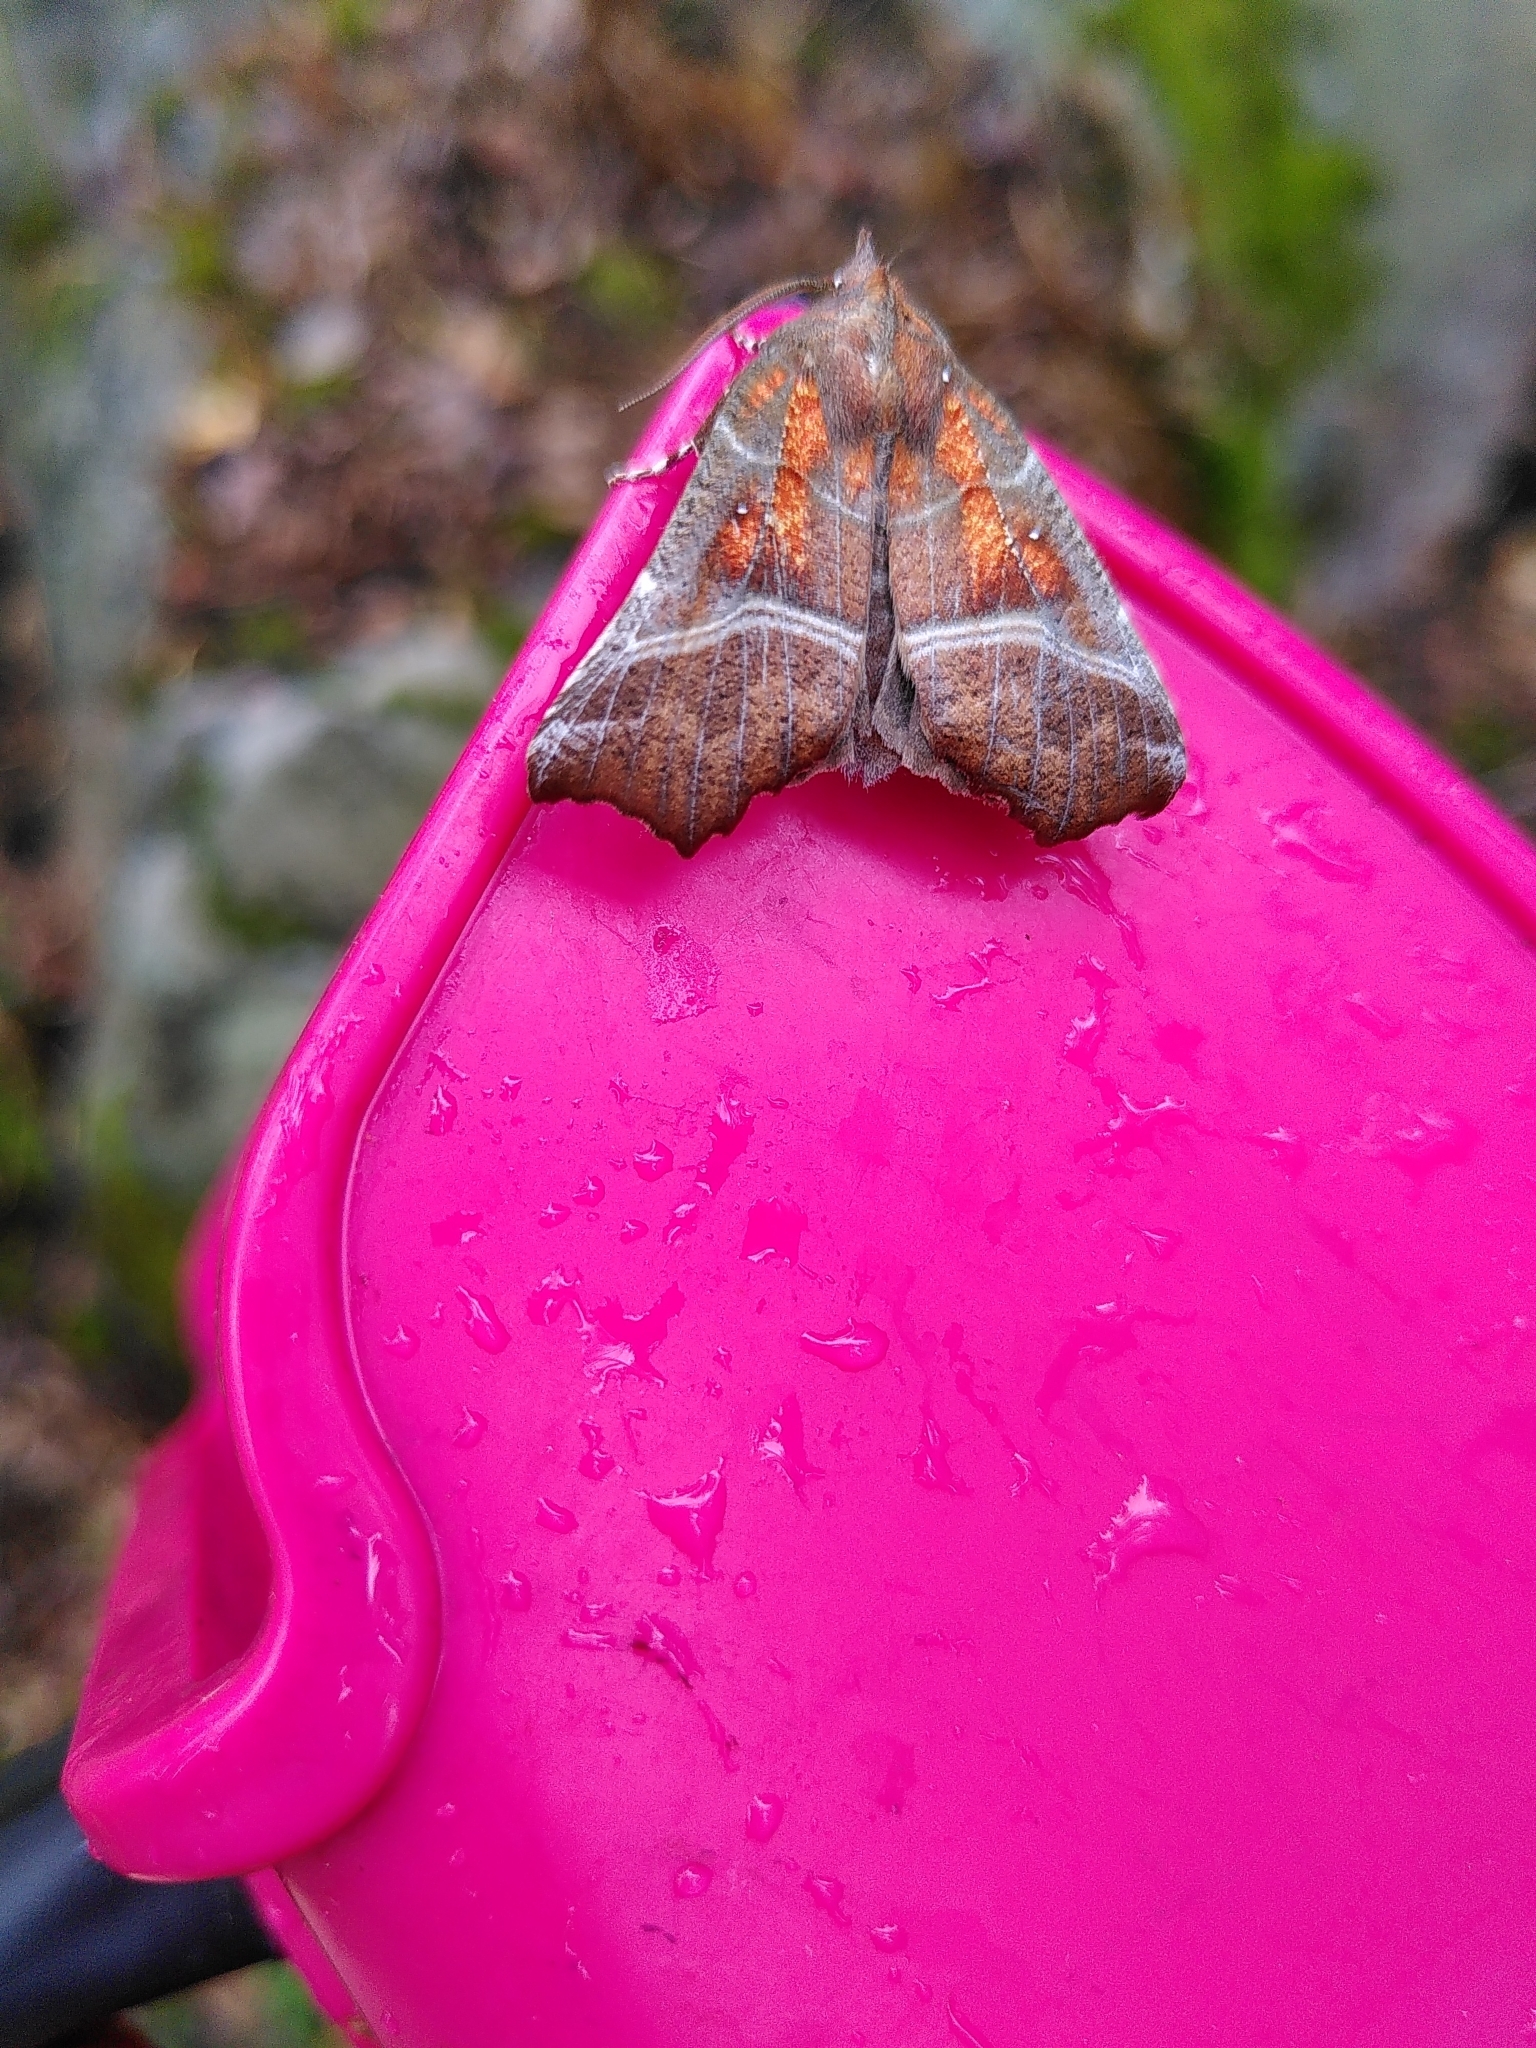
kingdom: Animalia
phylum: Arthropoda
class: Insecta
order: Lepidoptera
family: Erebidae
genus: Scoliopteryx
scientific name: Scoliopteryx libatrix
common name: Herald
